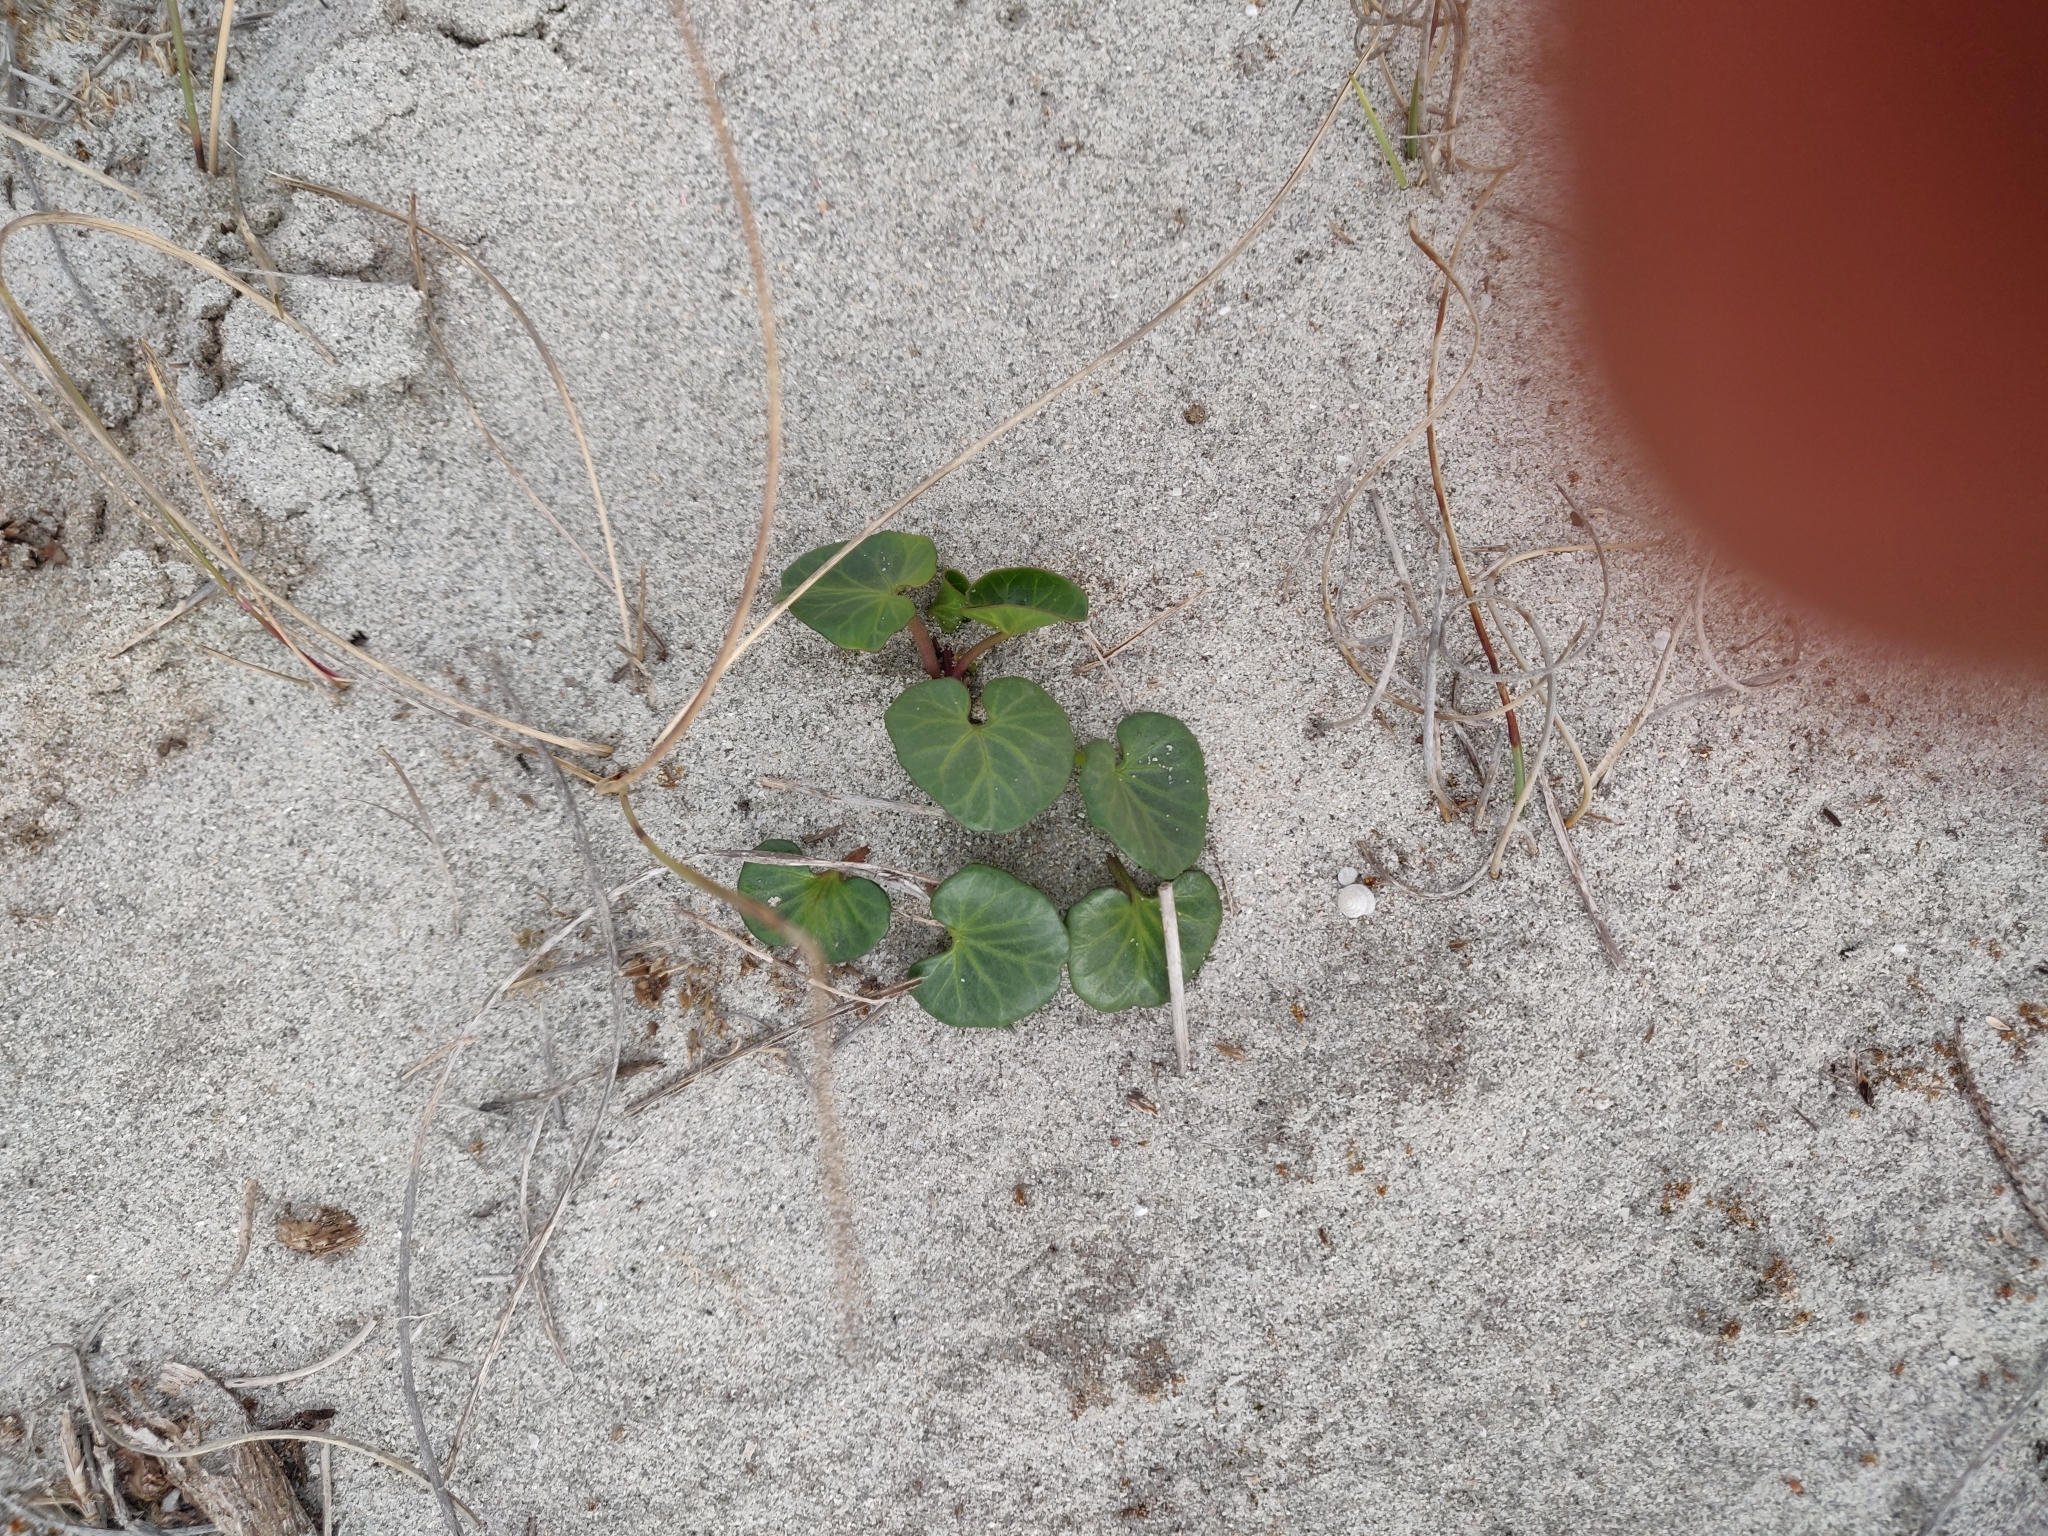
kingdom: Plantae
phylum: Tracheophyta
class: Magnoliopsida
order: Solanales
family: Convolvulaceae
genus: Calystegia
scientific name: Calystegia soldanella
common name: Sea bindweed
